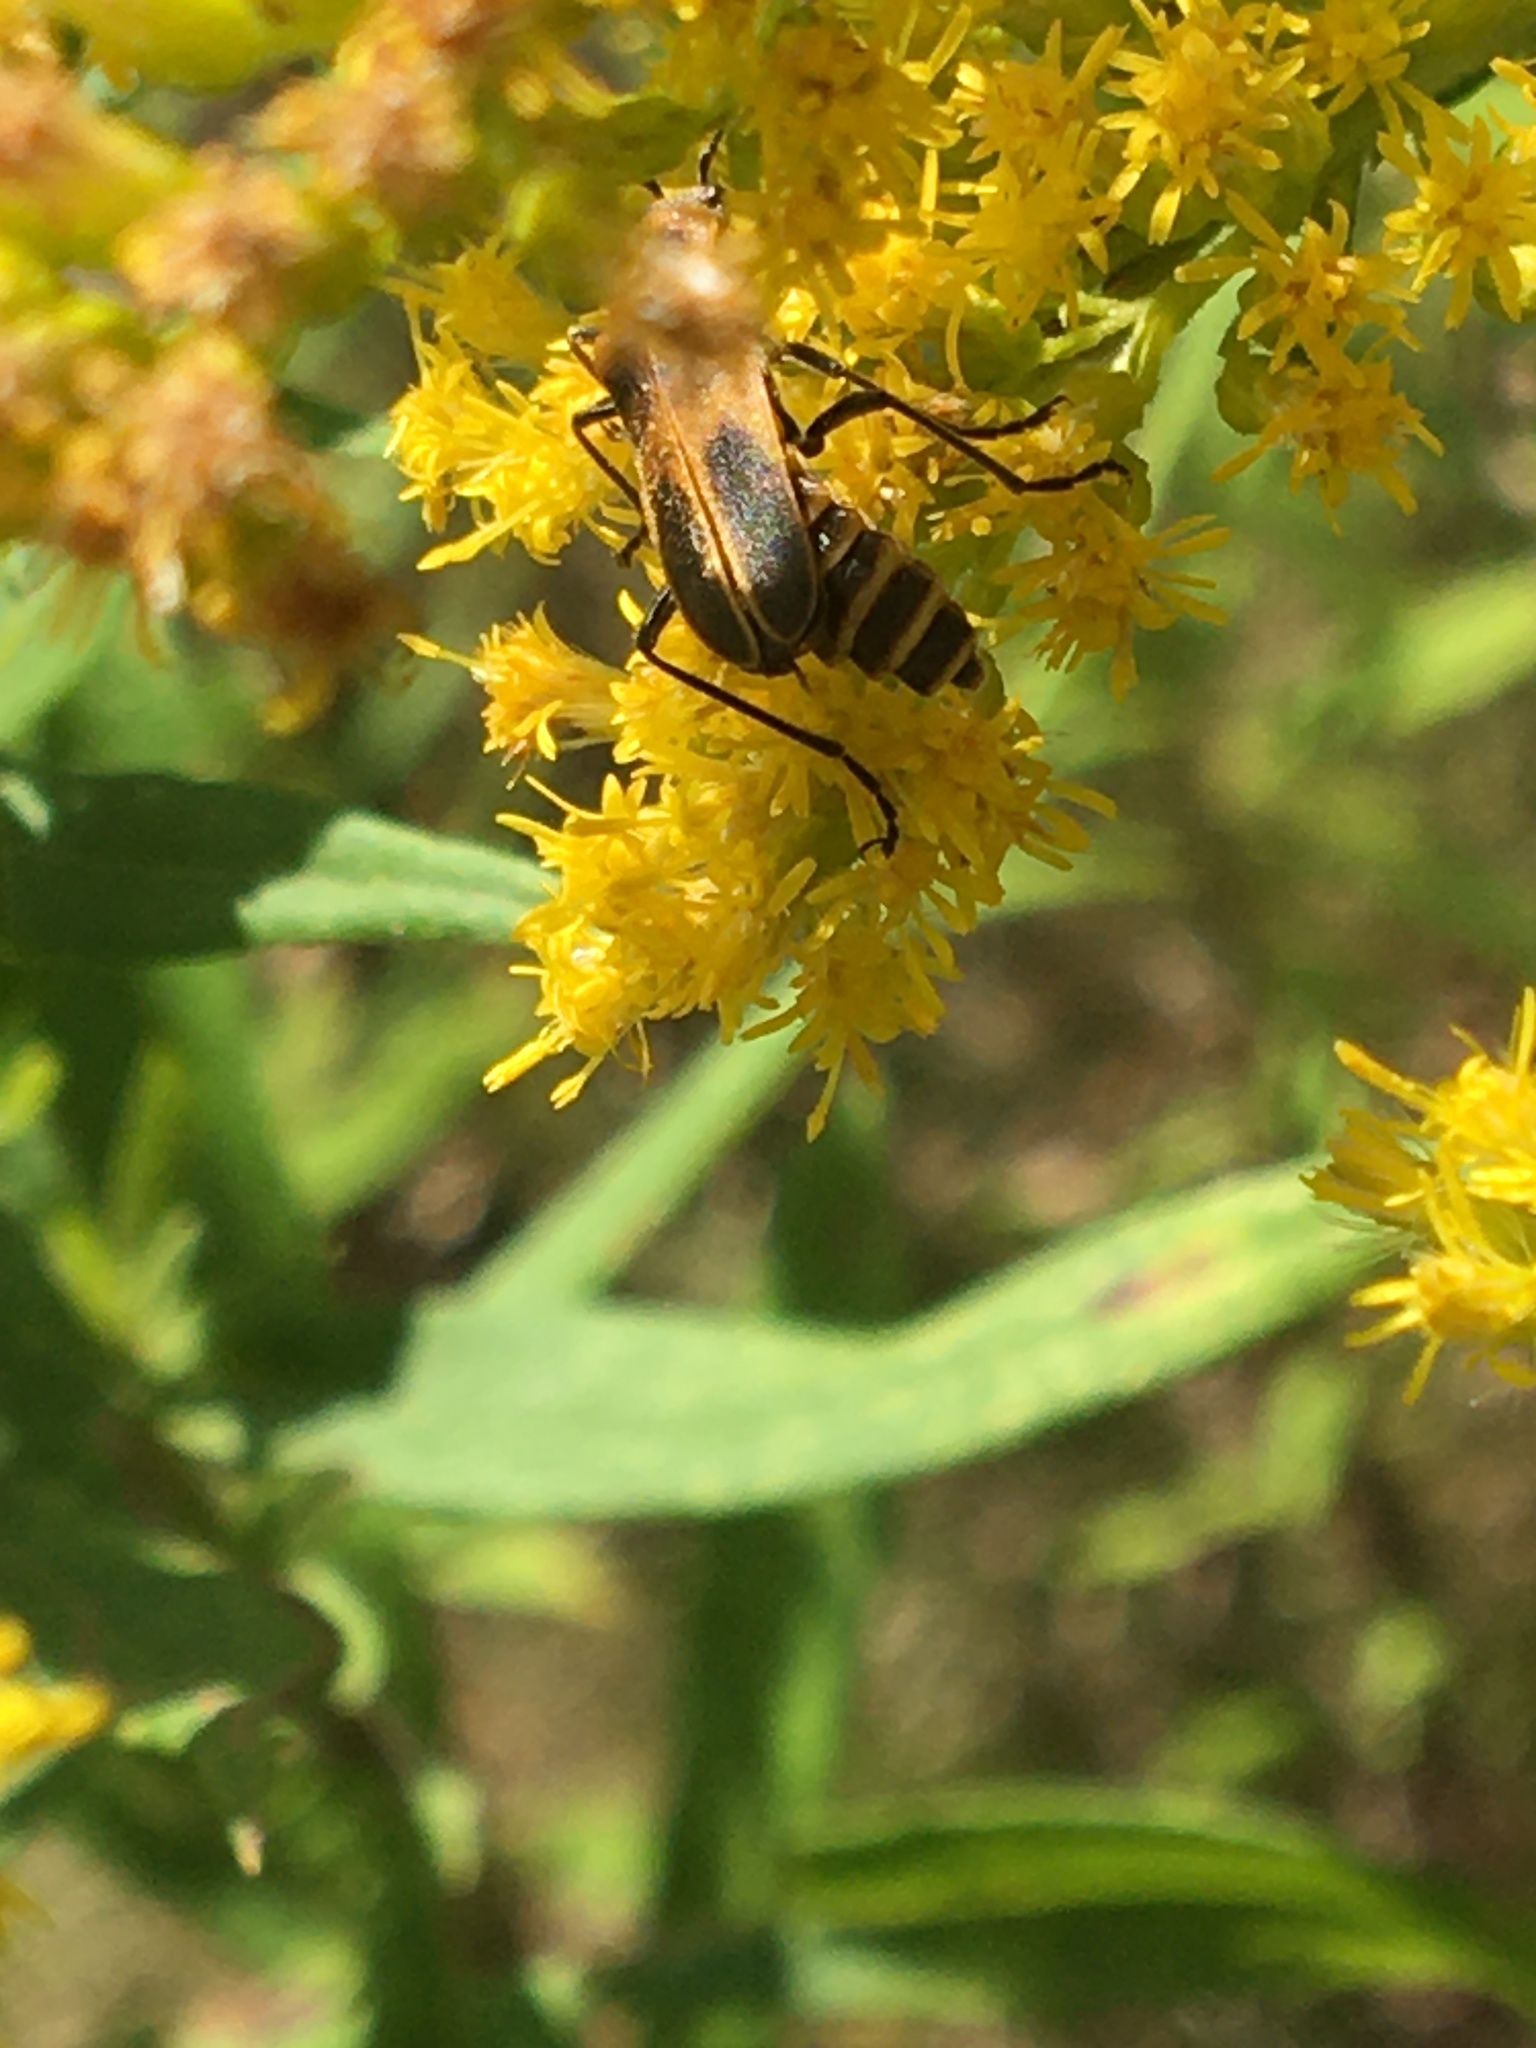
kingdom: Animalia
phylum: Arthropoda
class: Insecta
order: Coleoptera
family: Cantharidae
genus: Chauliognathus
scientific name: Chauliognathus pensylvanicus
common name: Goldenrod soldier beetle
